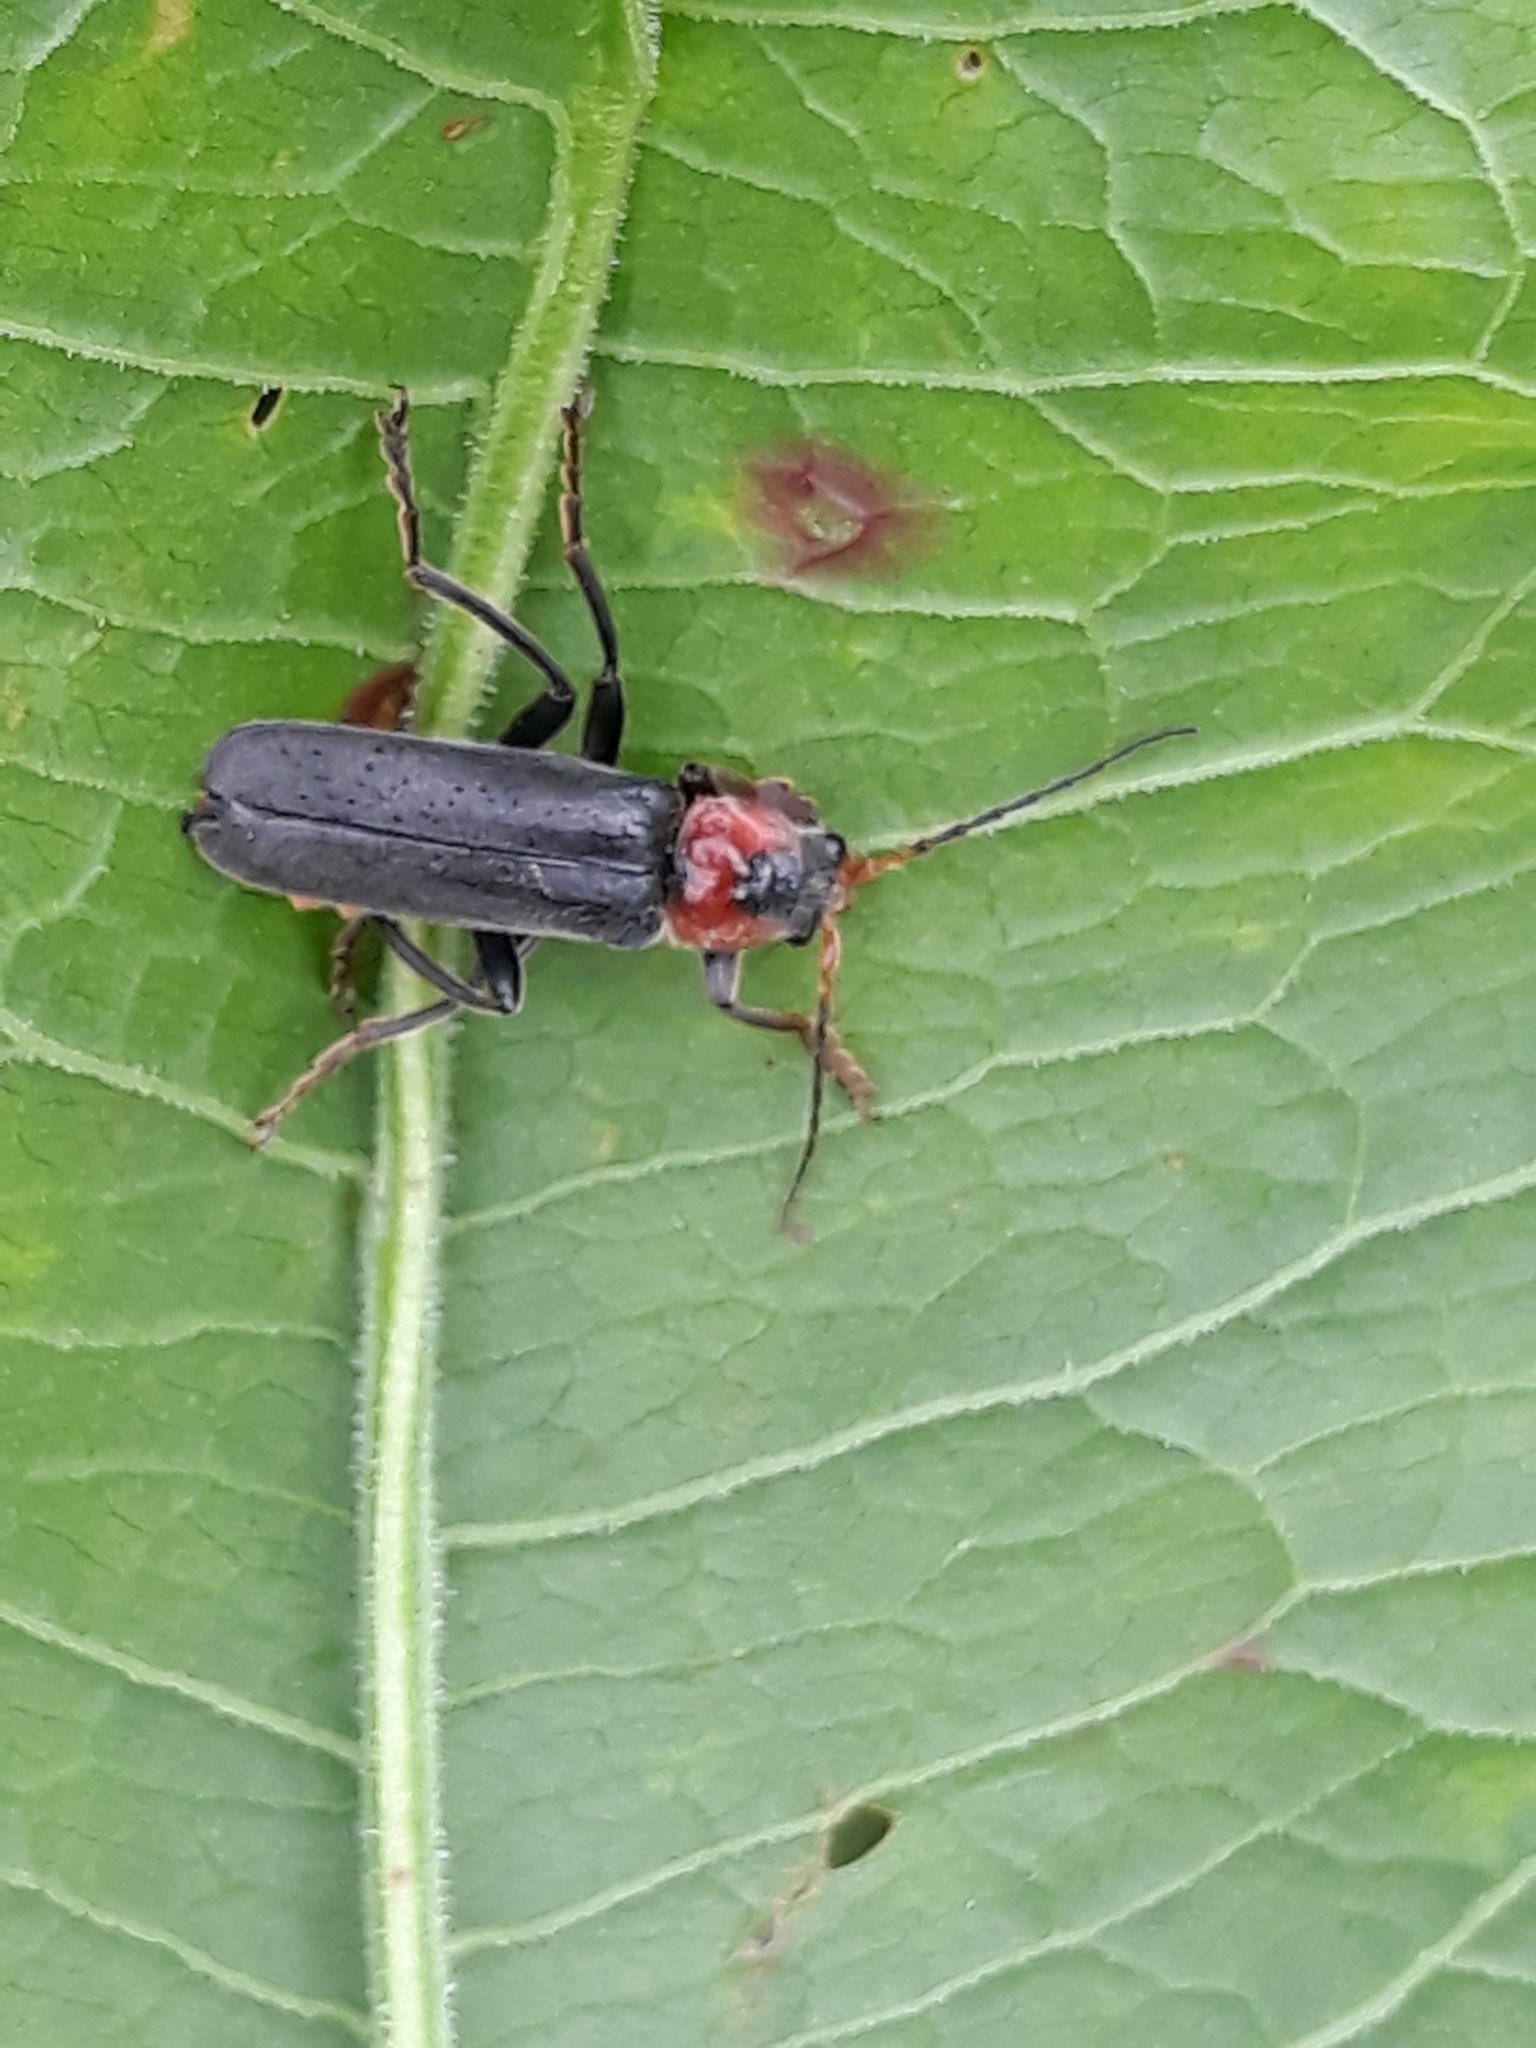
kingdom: Animalia
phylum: Arthropoda
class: Insecta
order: Coleoptera
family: Cantharidae
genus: Cantharis
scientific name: Cantharis fusca
